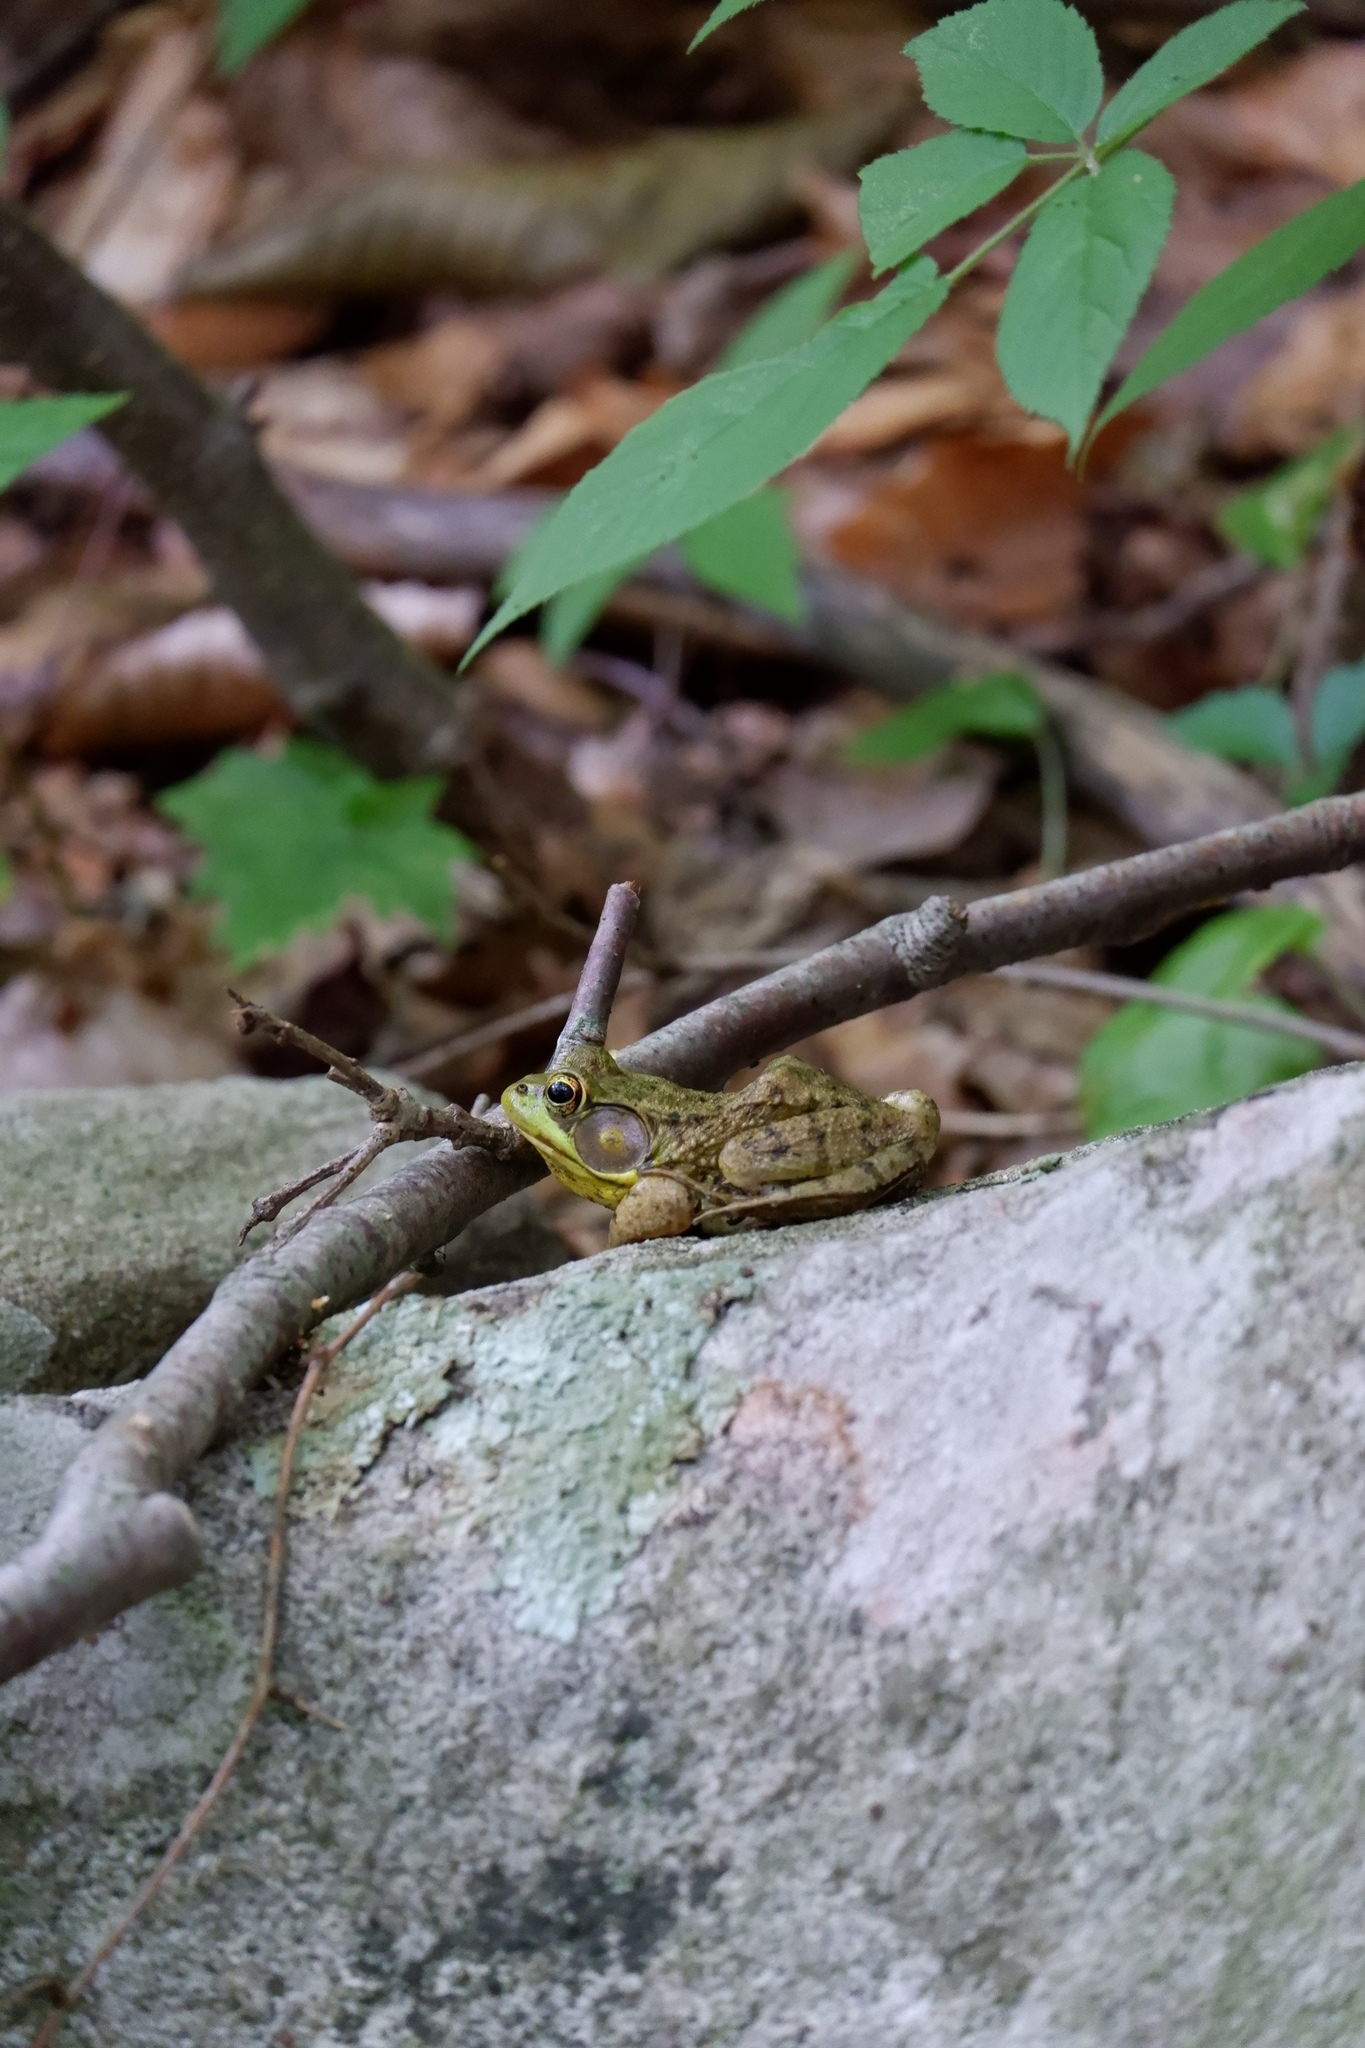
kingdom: Animalia
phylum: Chordata
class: Amphibia
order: Anura
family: Ranidae
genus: Lithobates
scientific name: Lithobates clamitans
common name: Green frog
